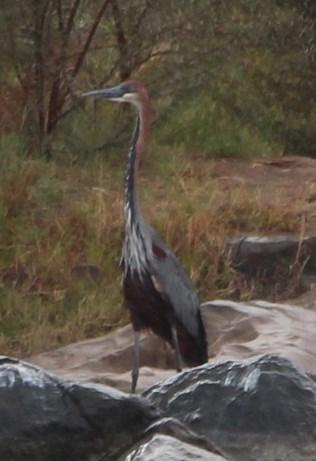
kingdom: Animalia
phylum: Chordata
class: Aves
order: Pelecaniformes
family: Ardeidae
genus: Ardea
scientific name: Ardea goliath
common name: Goliath heron
